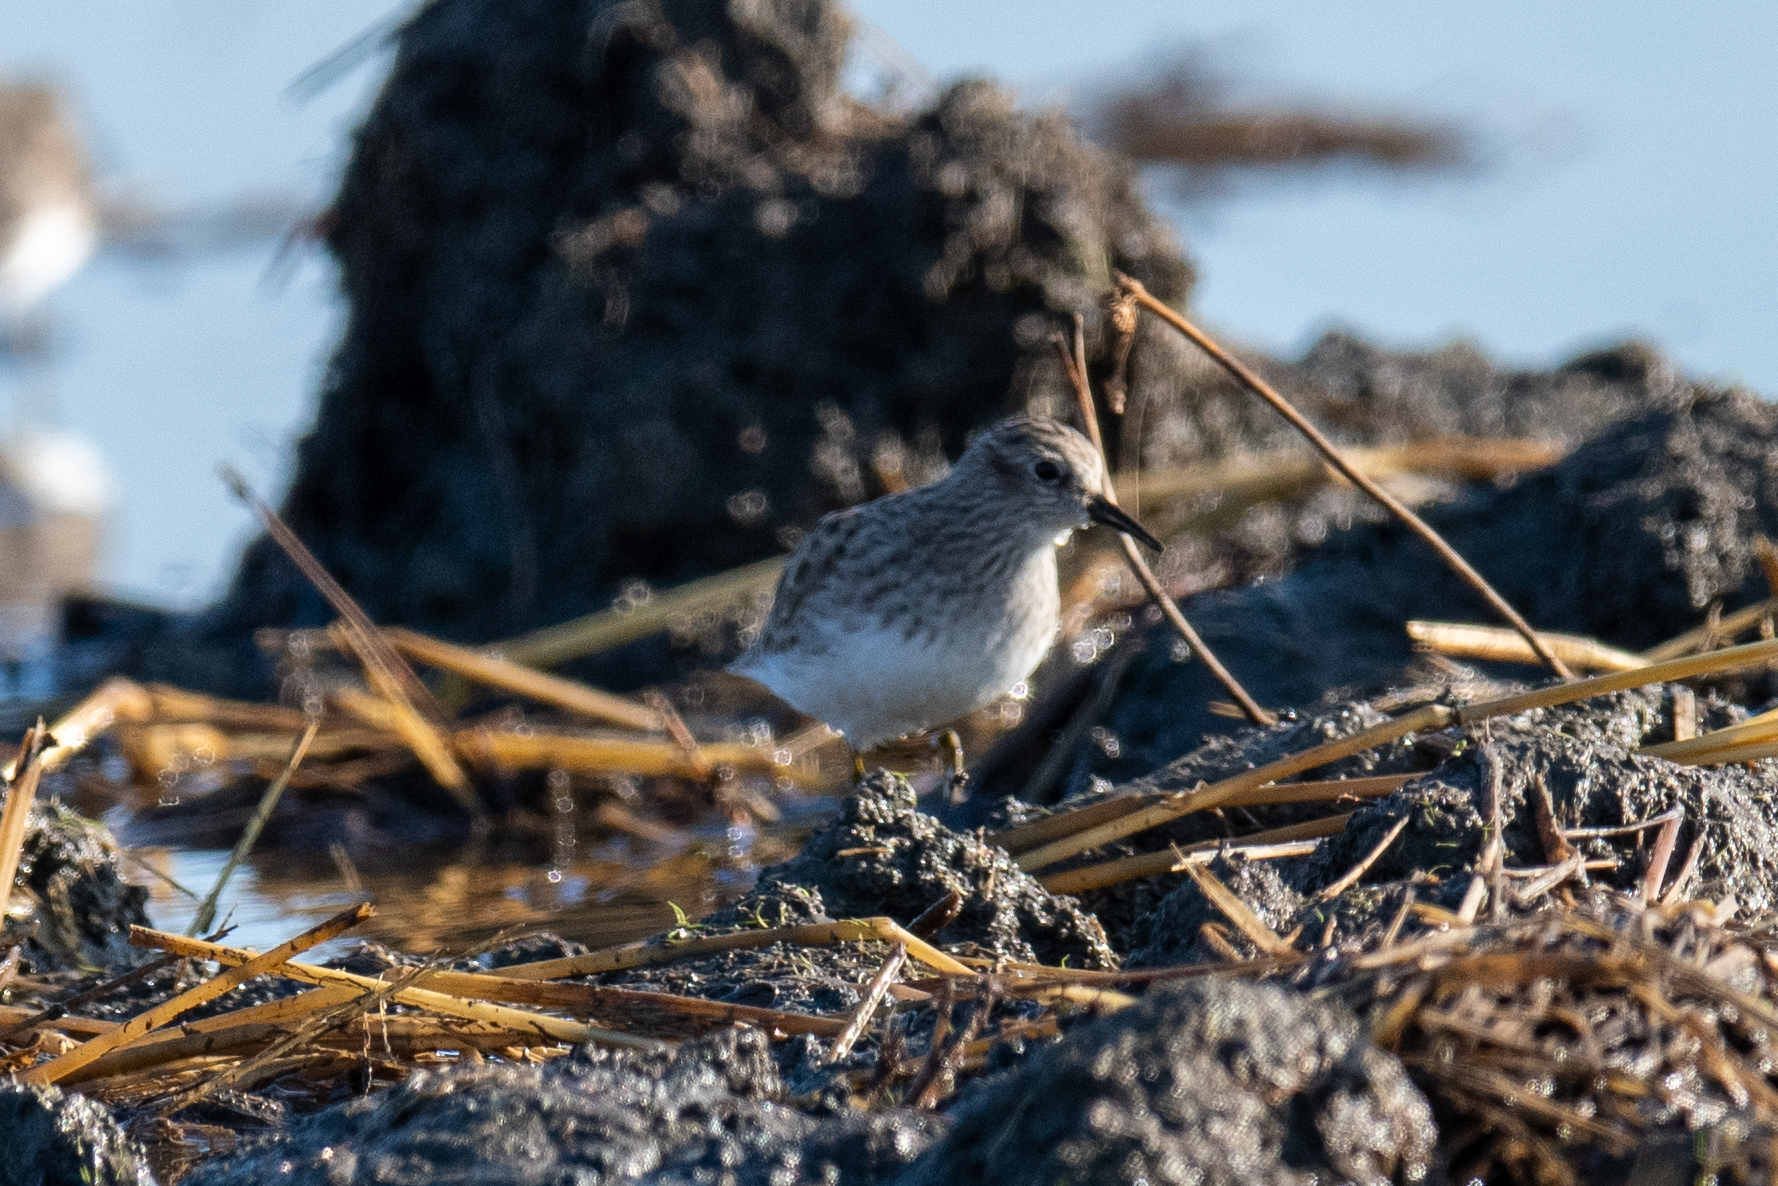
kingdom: Animalia
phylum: Chordata
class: Aves
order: Charadriiformes
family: Scolopacidae
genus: Calidris
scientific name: Calidris minutilla
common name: Least sandpiper
